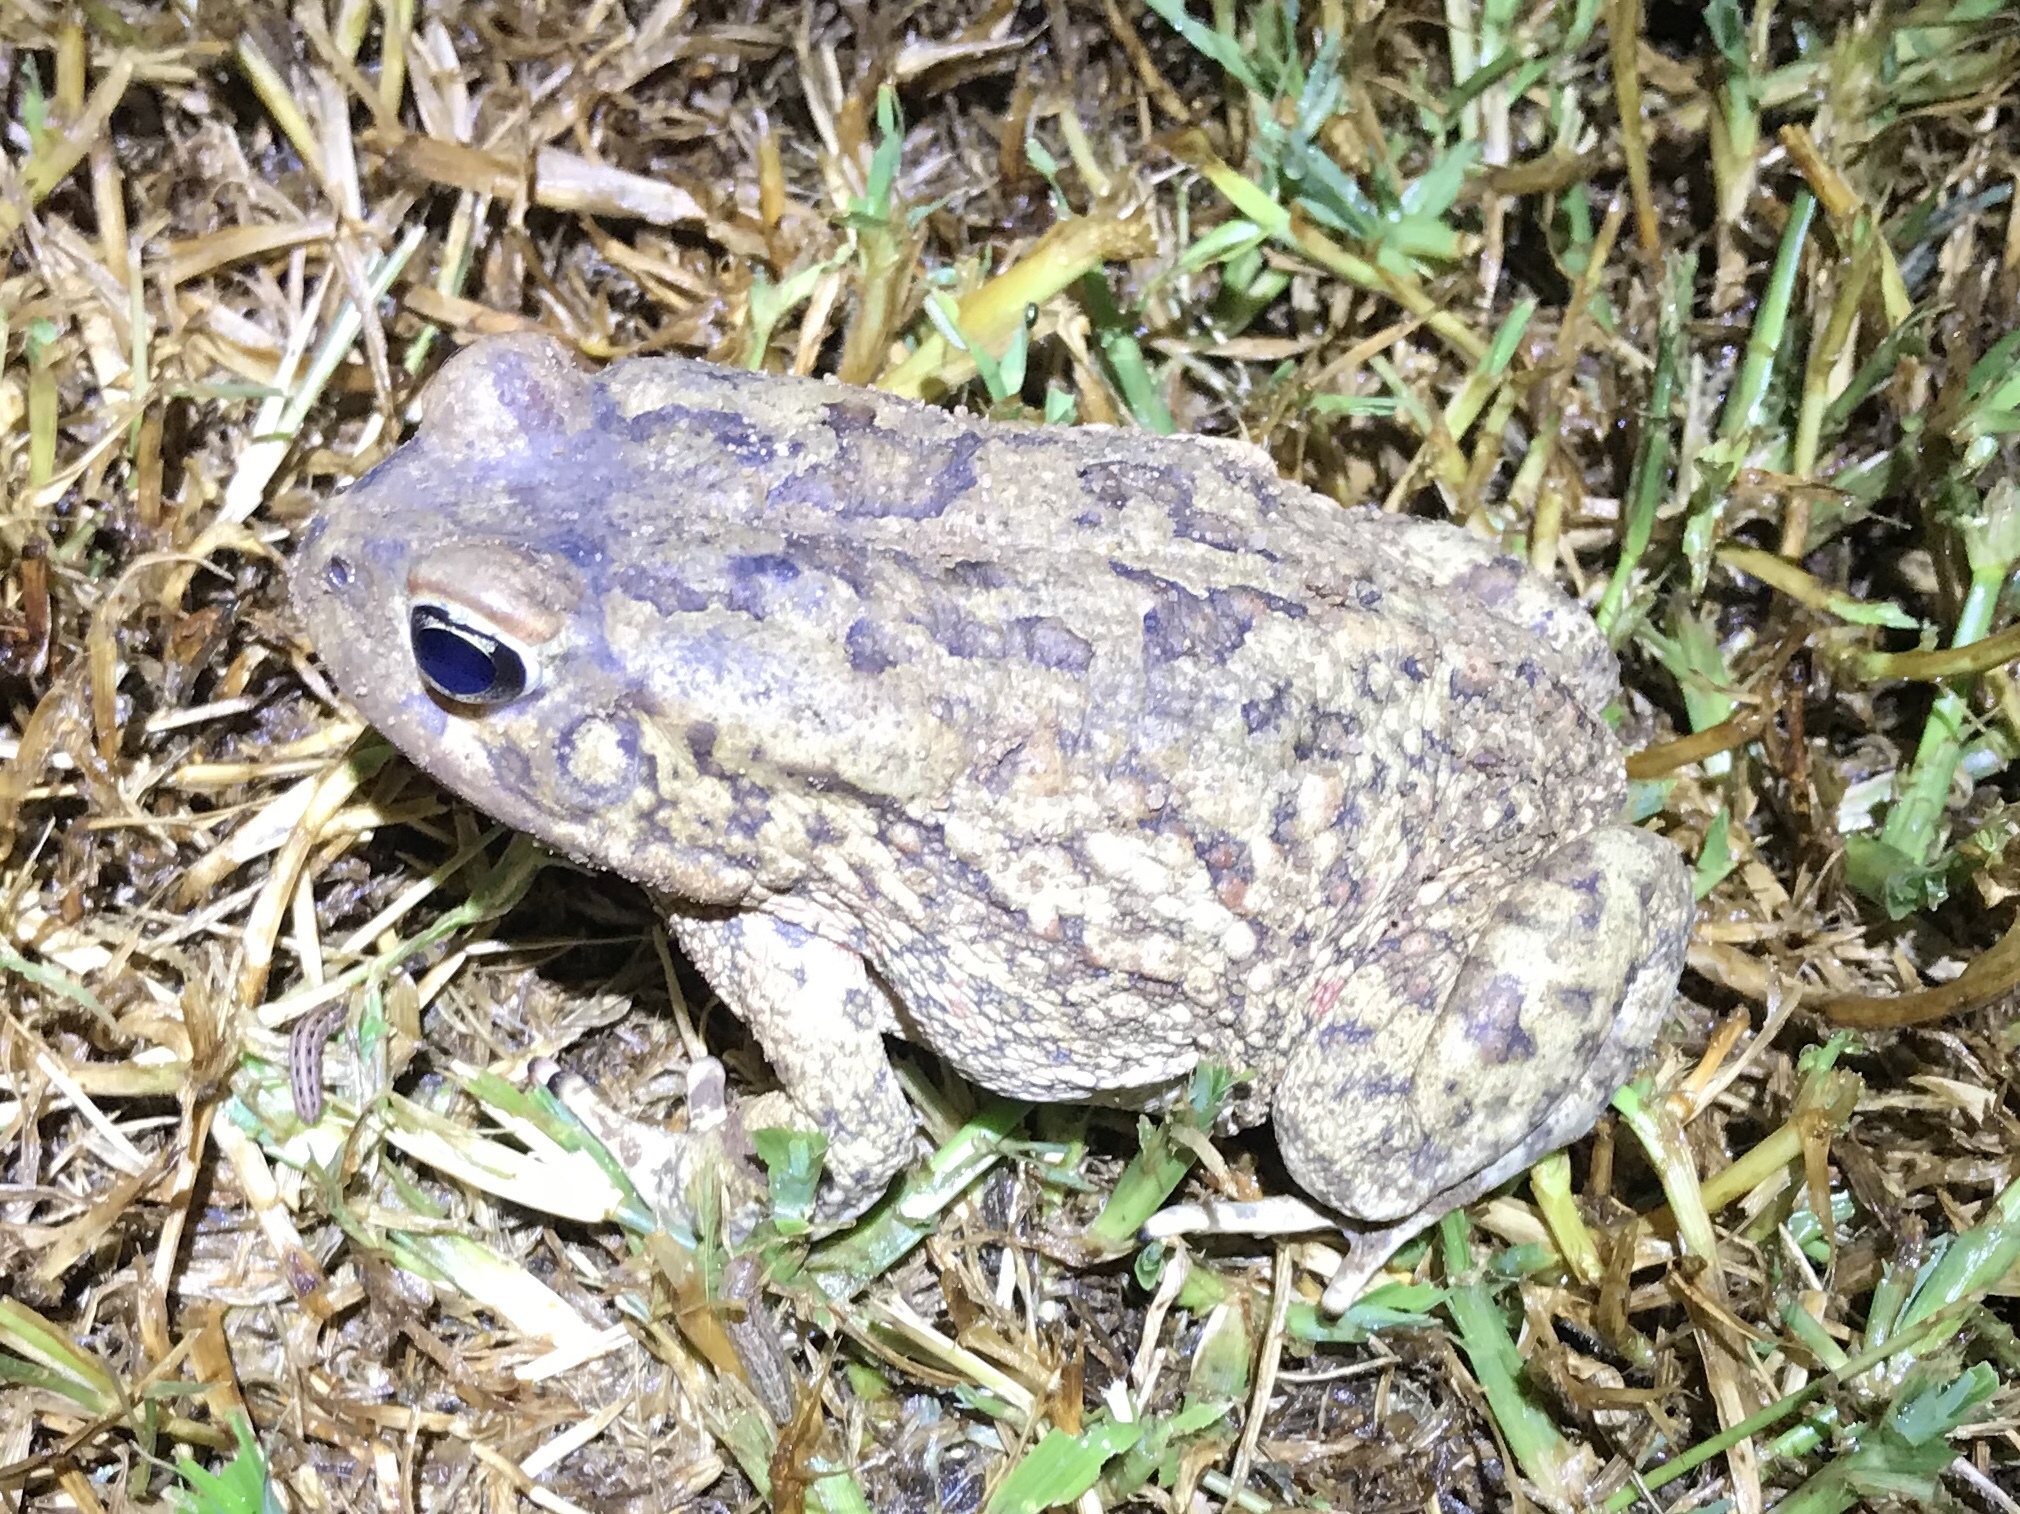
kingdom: Animalia
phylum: Chordata
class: Amphibia
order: Anura
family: Bufonidae
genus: Sclerophrys
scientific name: Sclerophrys gutturalis
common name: African common toad
